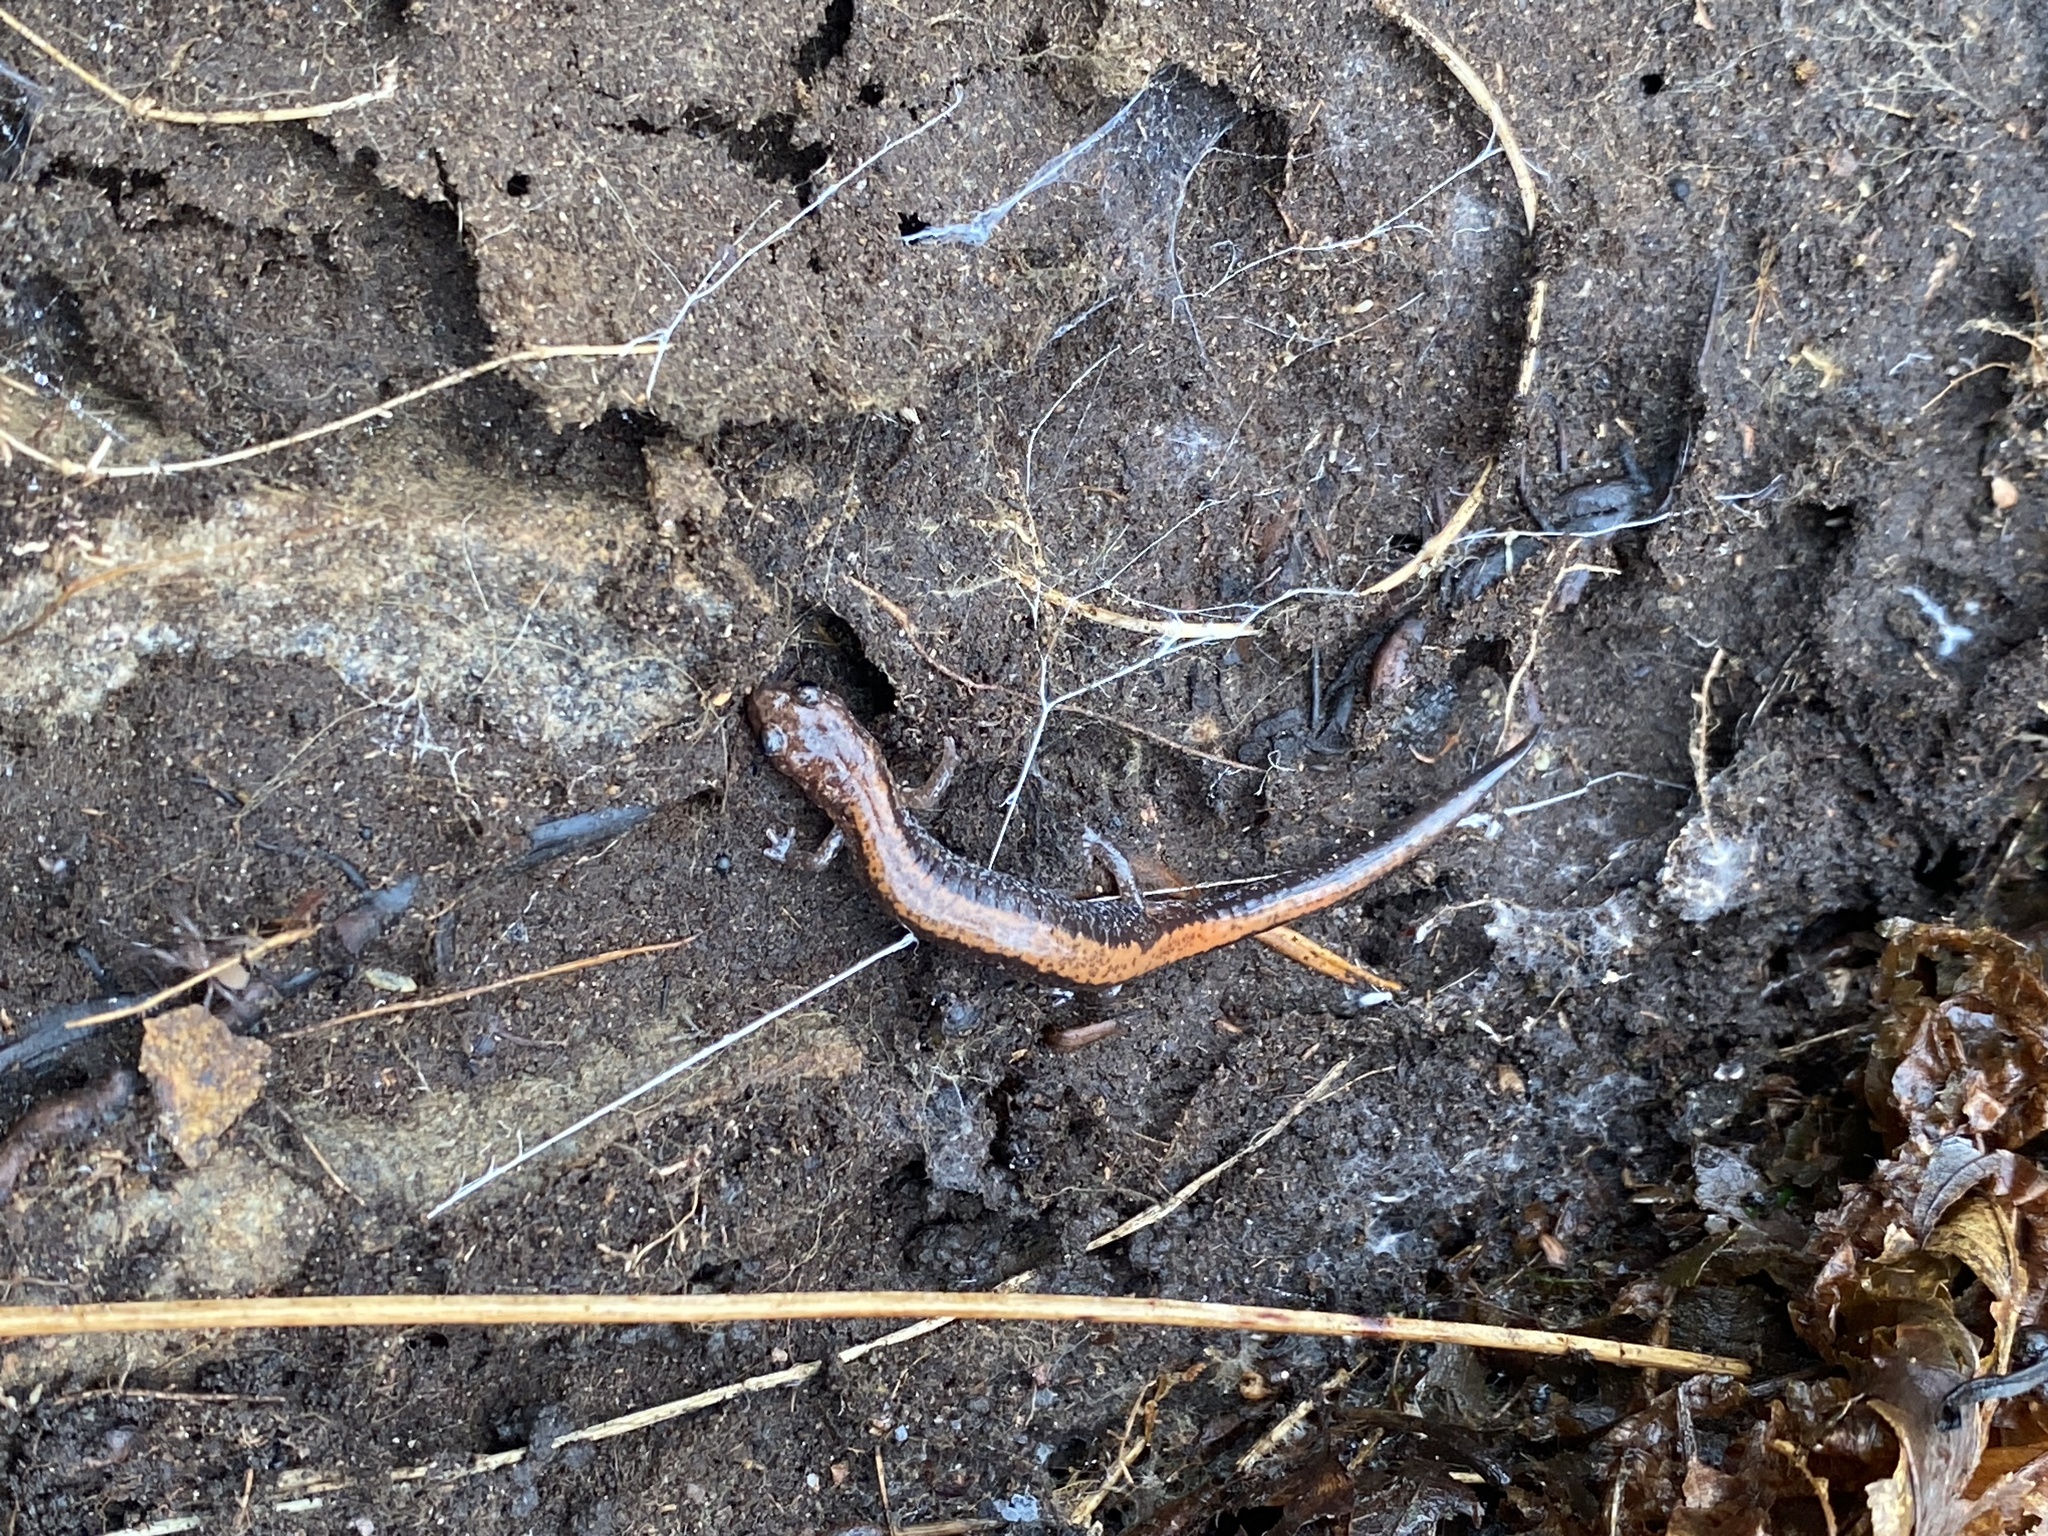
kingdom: Animalia
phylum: Chordata
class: Amphibia
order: Caudata
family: Plethodontidae
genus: Plethodon
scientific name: Plethodon cinereus
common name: Redback salamander
